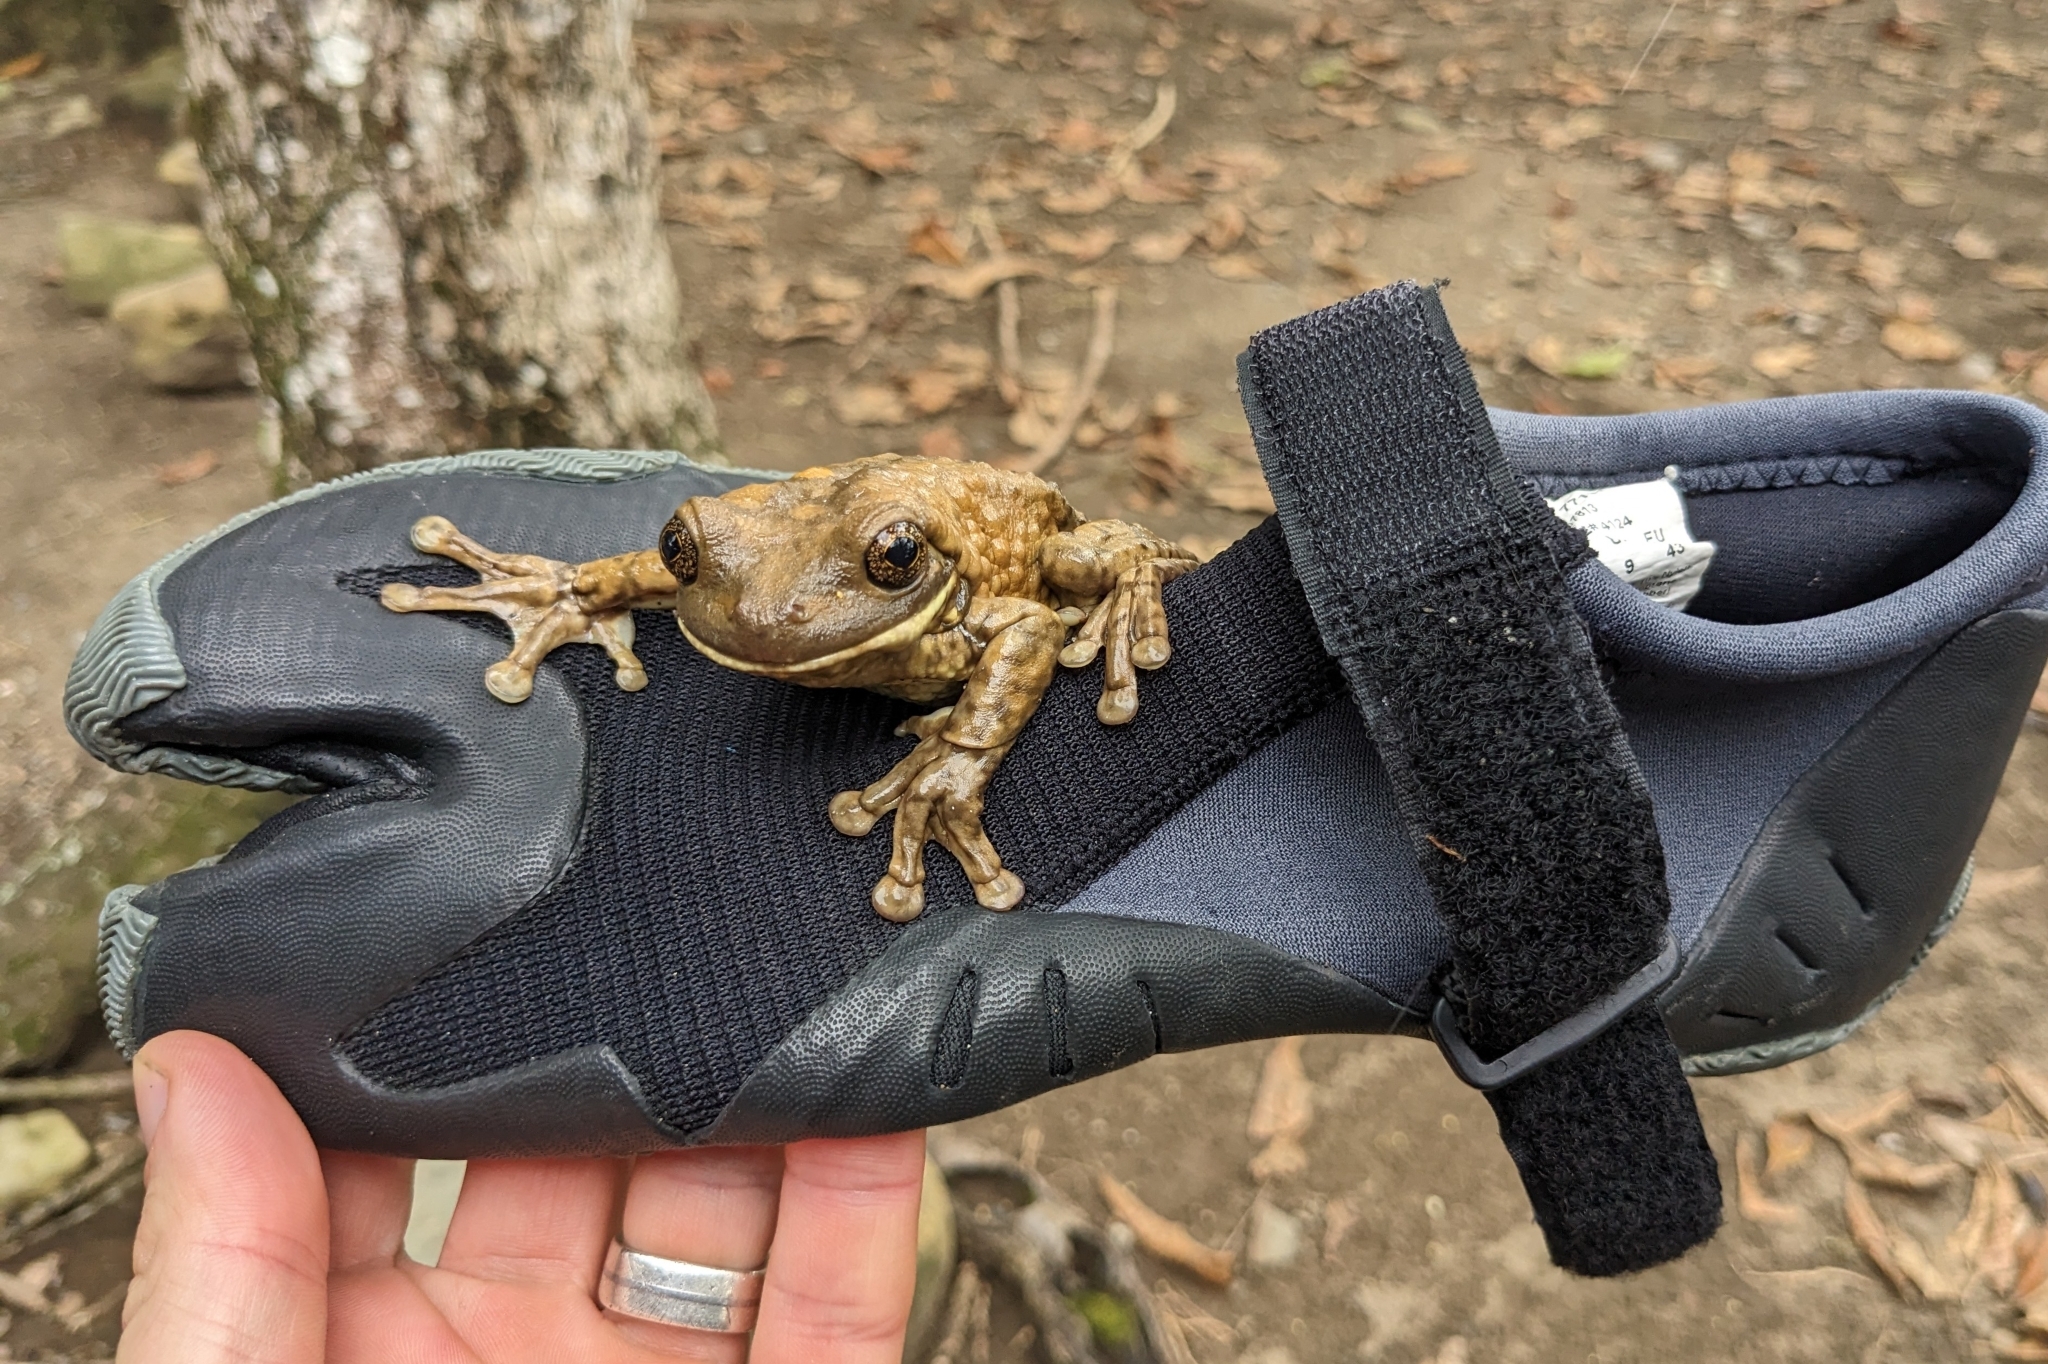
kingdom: Animalia
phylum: Chordata
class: Amphibia
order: Anura
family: Hylidae
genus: Trachycephalus
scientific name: Trachycephalus vermiculatus
